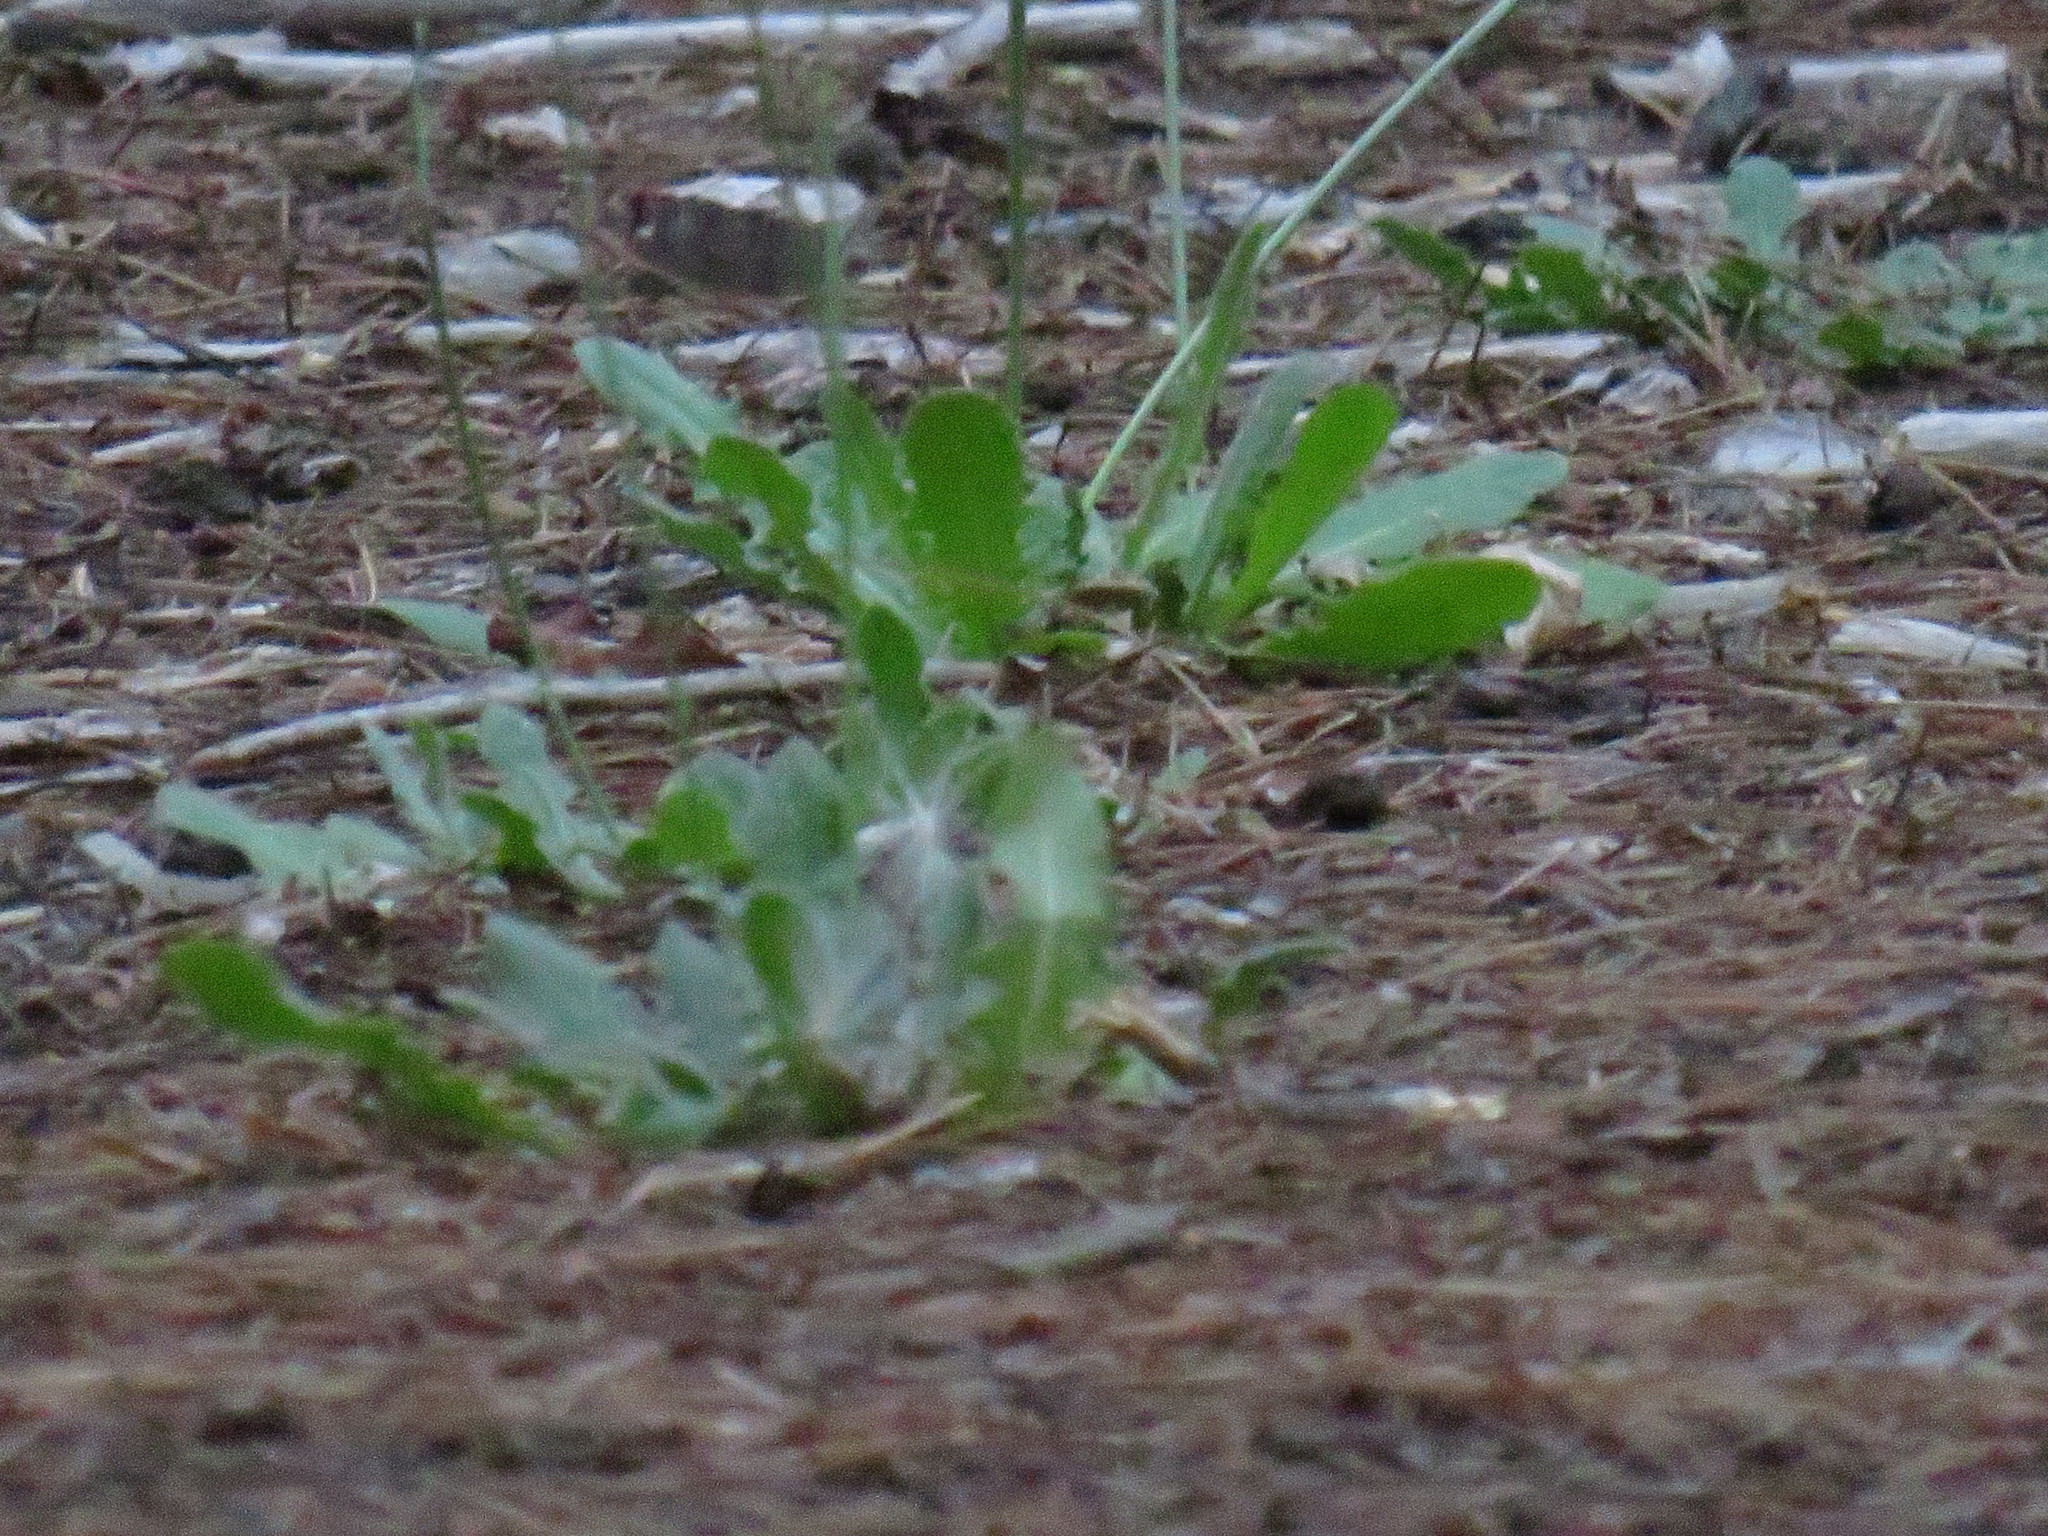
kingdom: Plantae
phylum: Tracheophyta
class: Magnoliopsida
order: Asterales
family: Asteraceae
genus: Hypochaeris
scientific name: Hypochaeris radicata
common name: Flatweed
